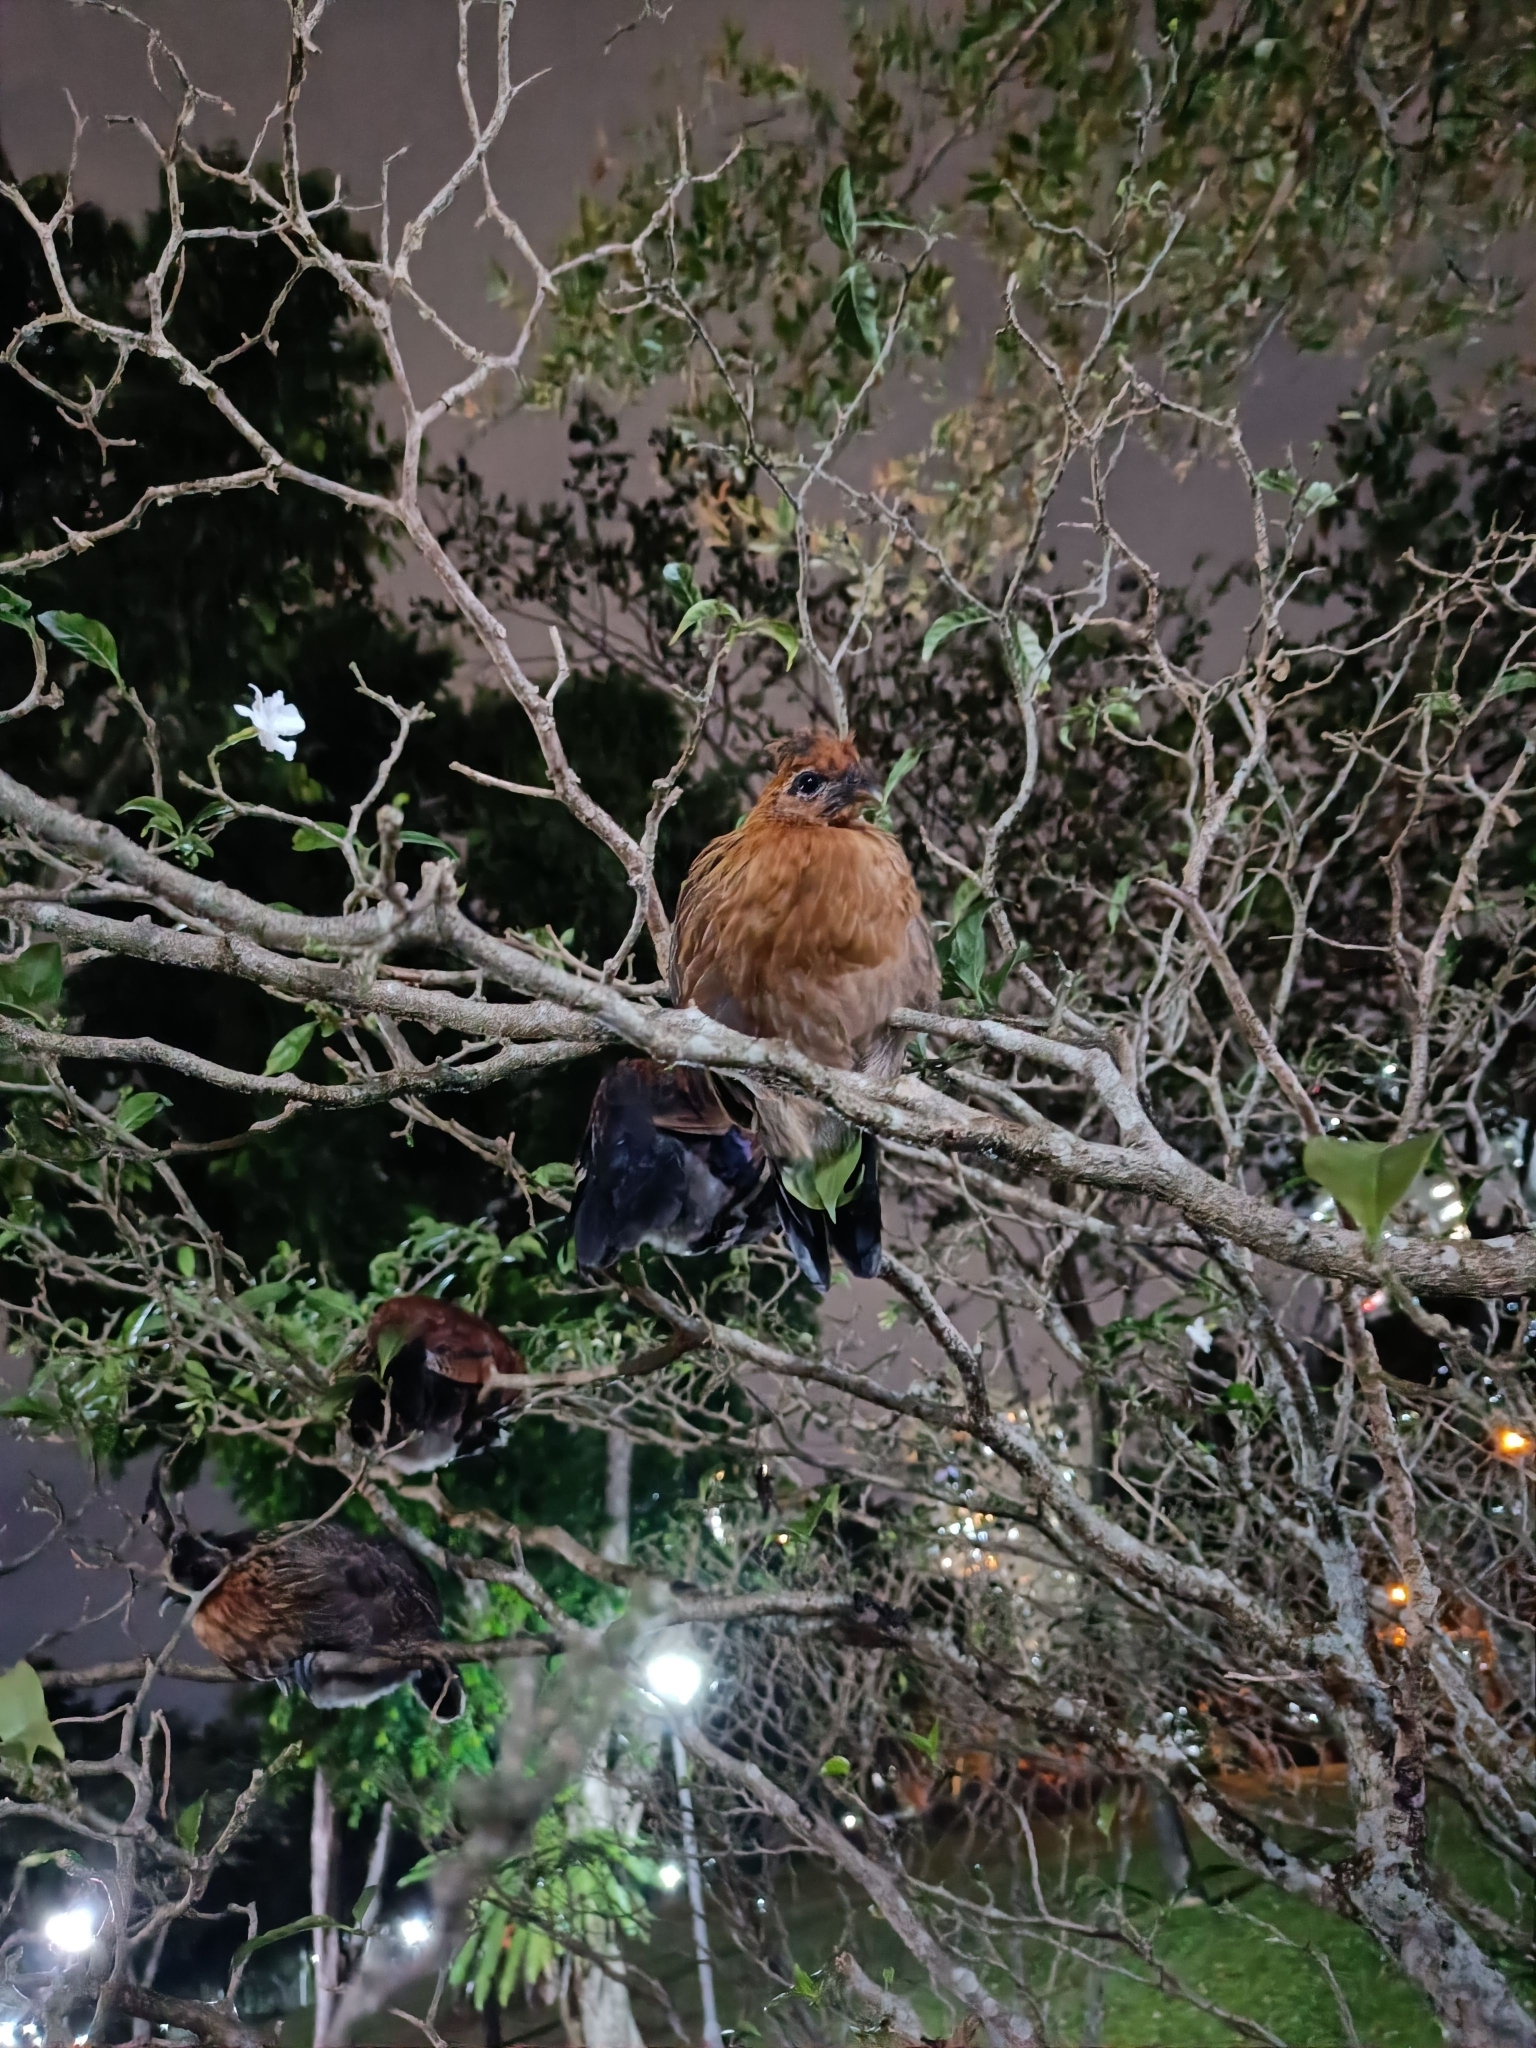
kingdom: Animalia
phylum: Chordata
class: Aves
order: Galliformes
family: Phasianidae
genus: Gallus
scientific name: Gallus gallus
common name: Red junglefowl
